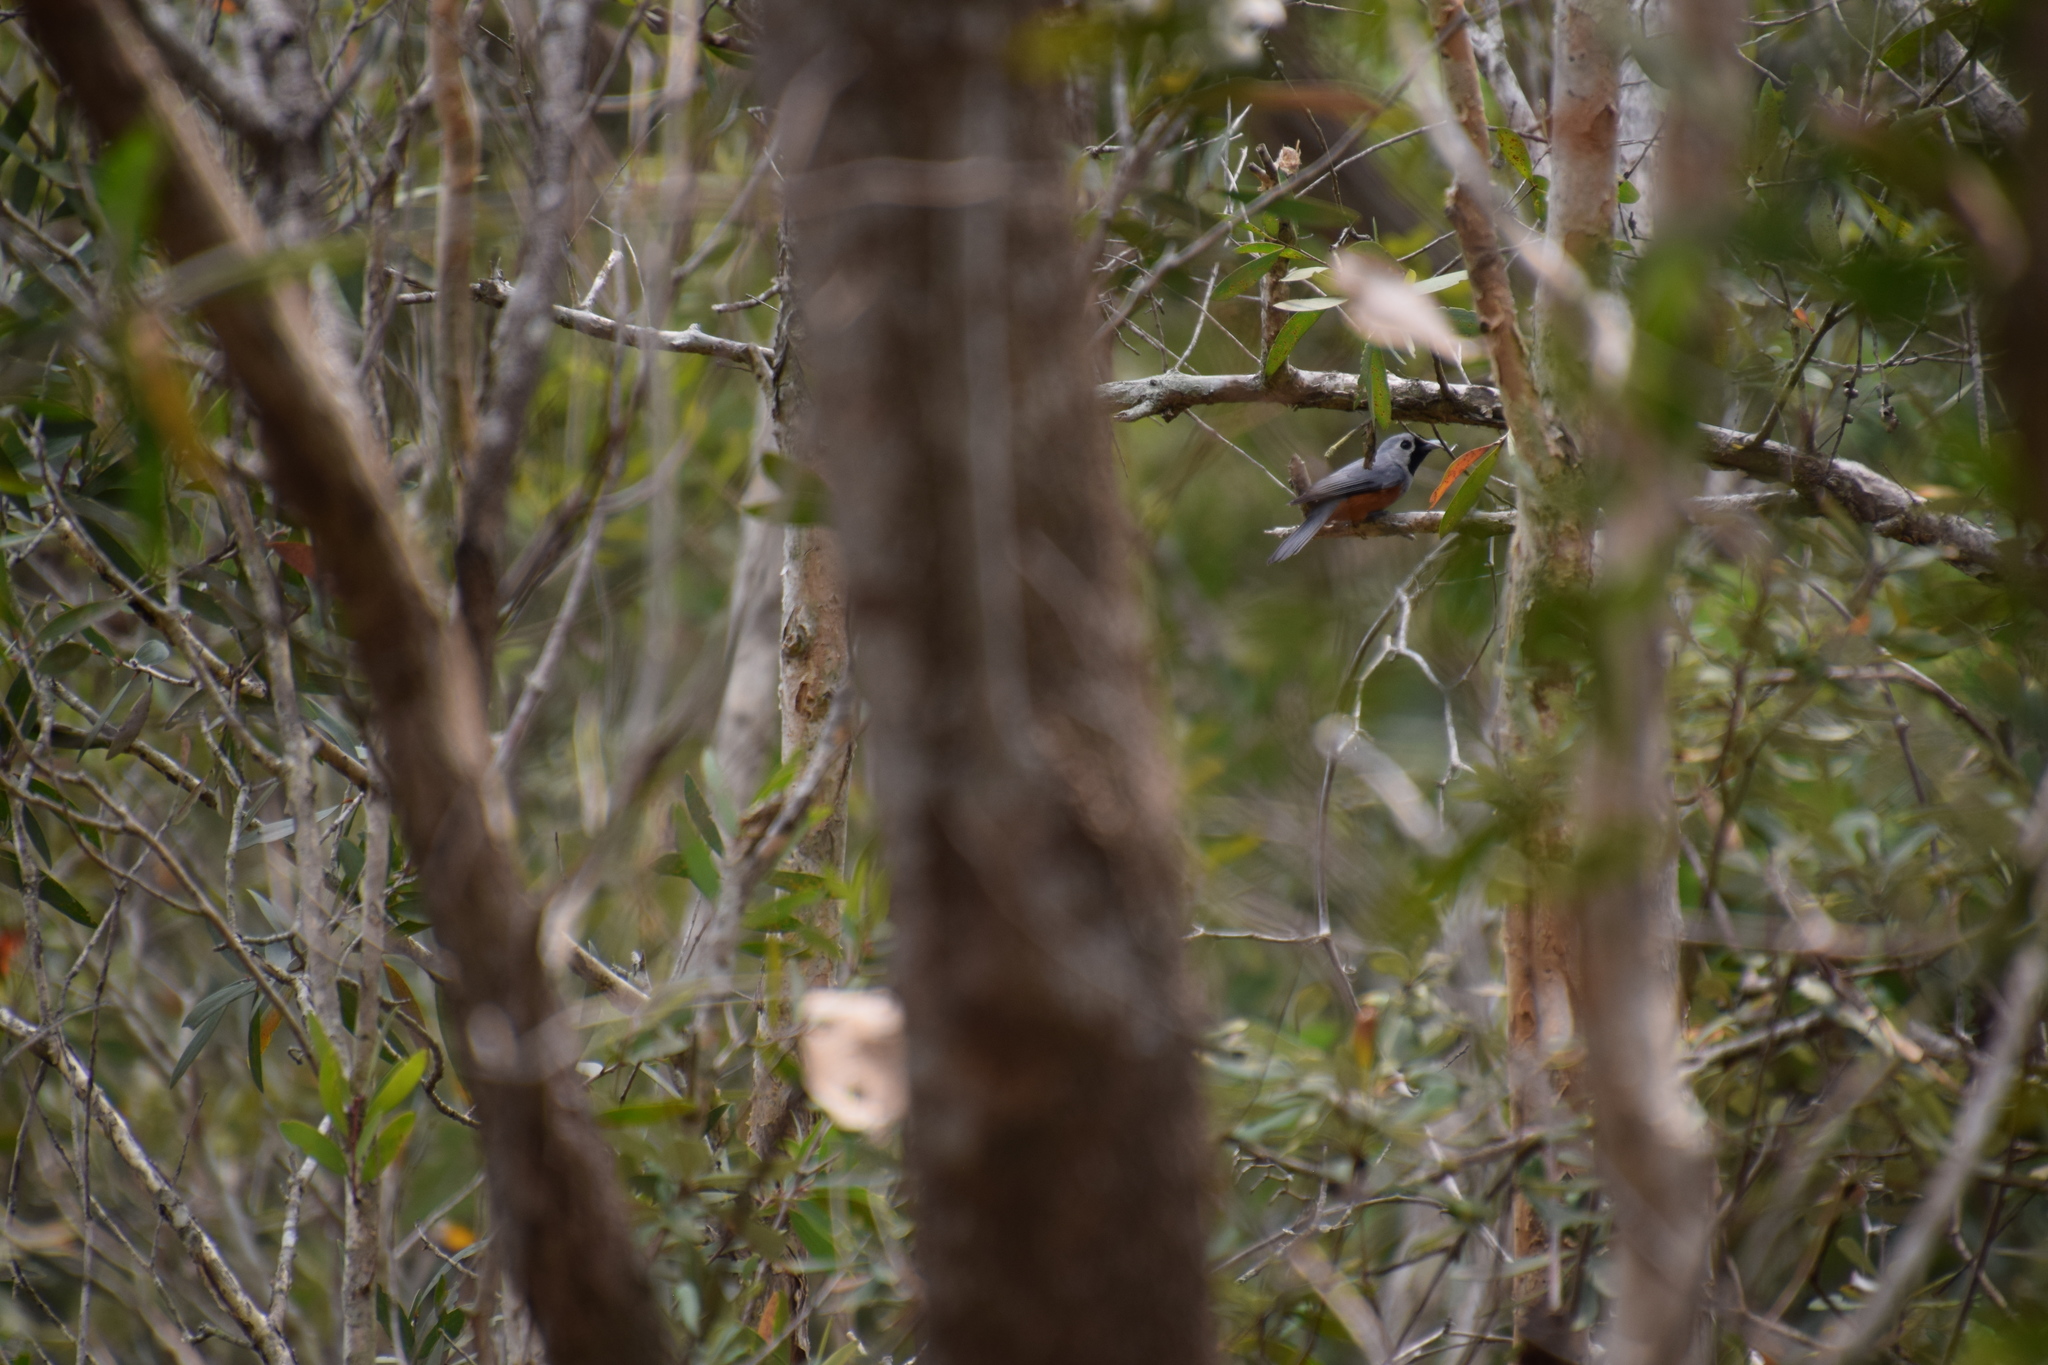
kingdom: Animalia
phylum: Chordata
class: Aves
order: Passeriformes
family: Monarchidae
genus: Monarcha
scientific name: Monarcha melanopsis
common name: Black-faced monarch
